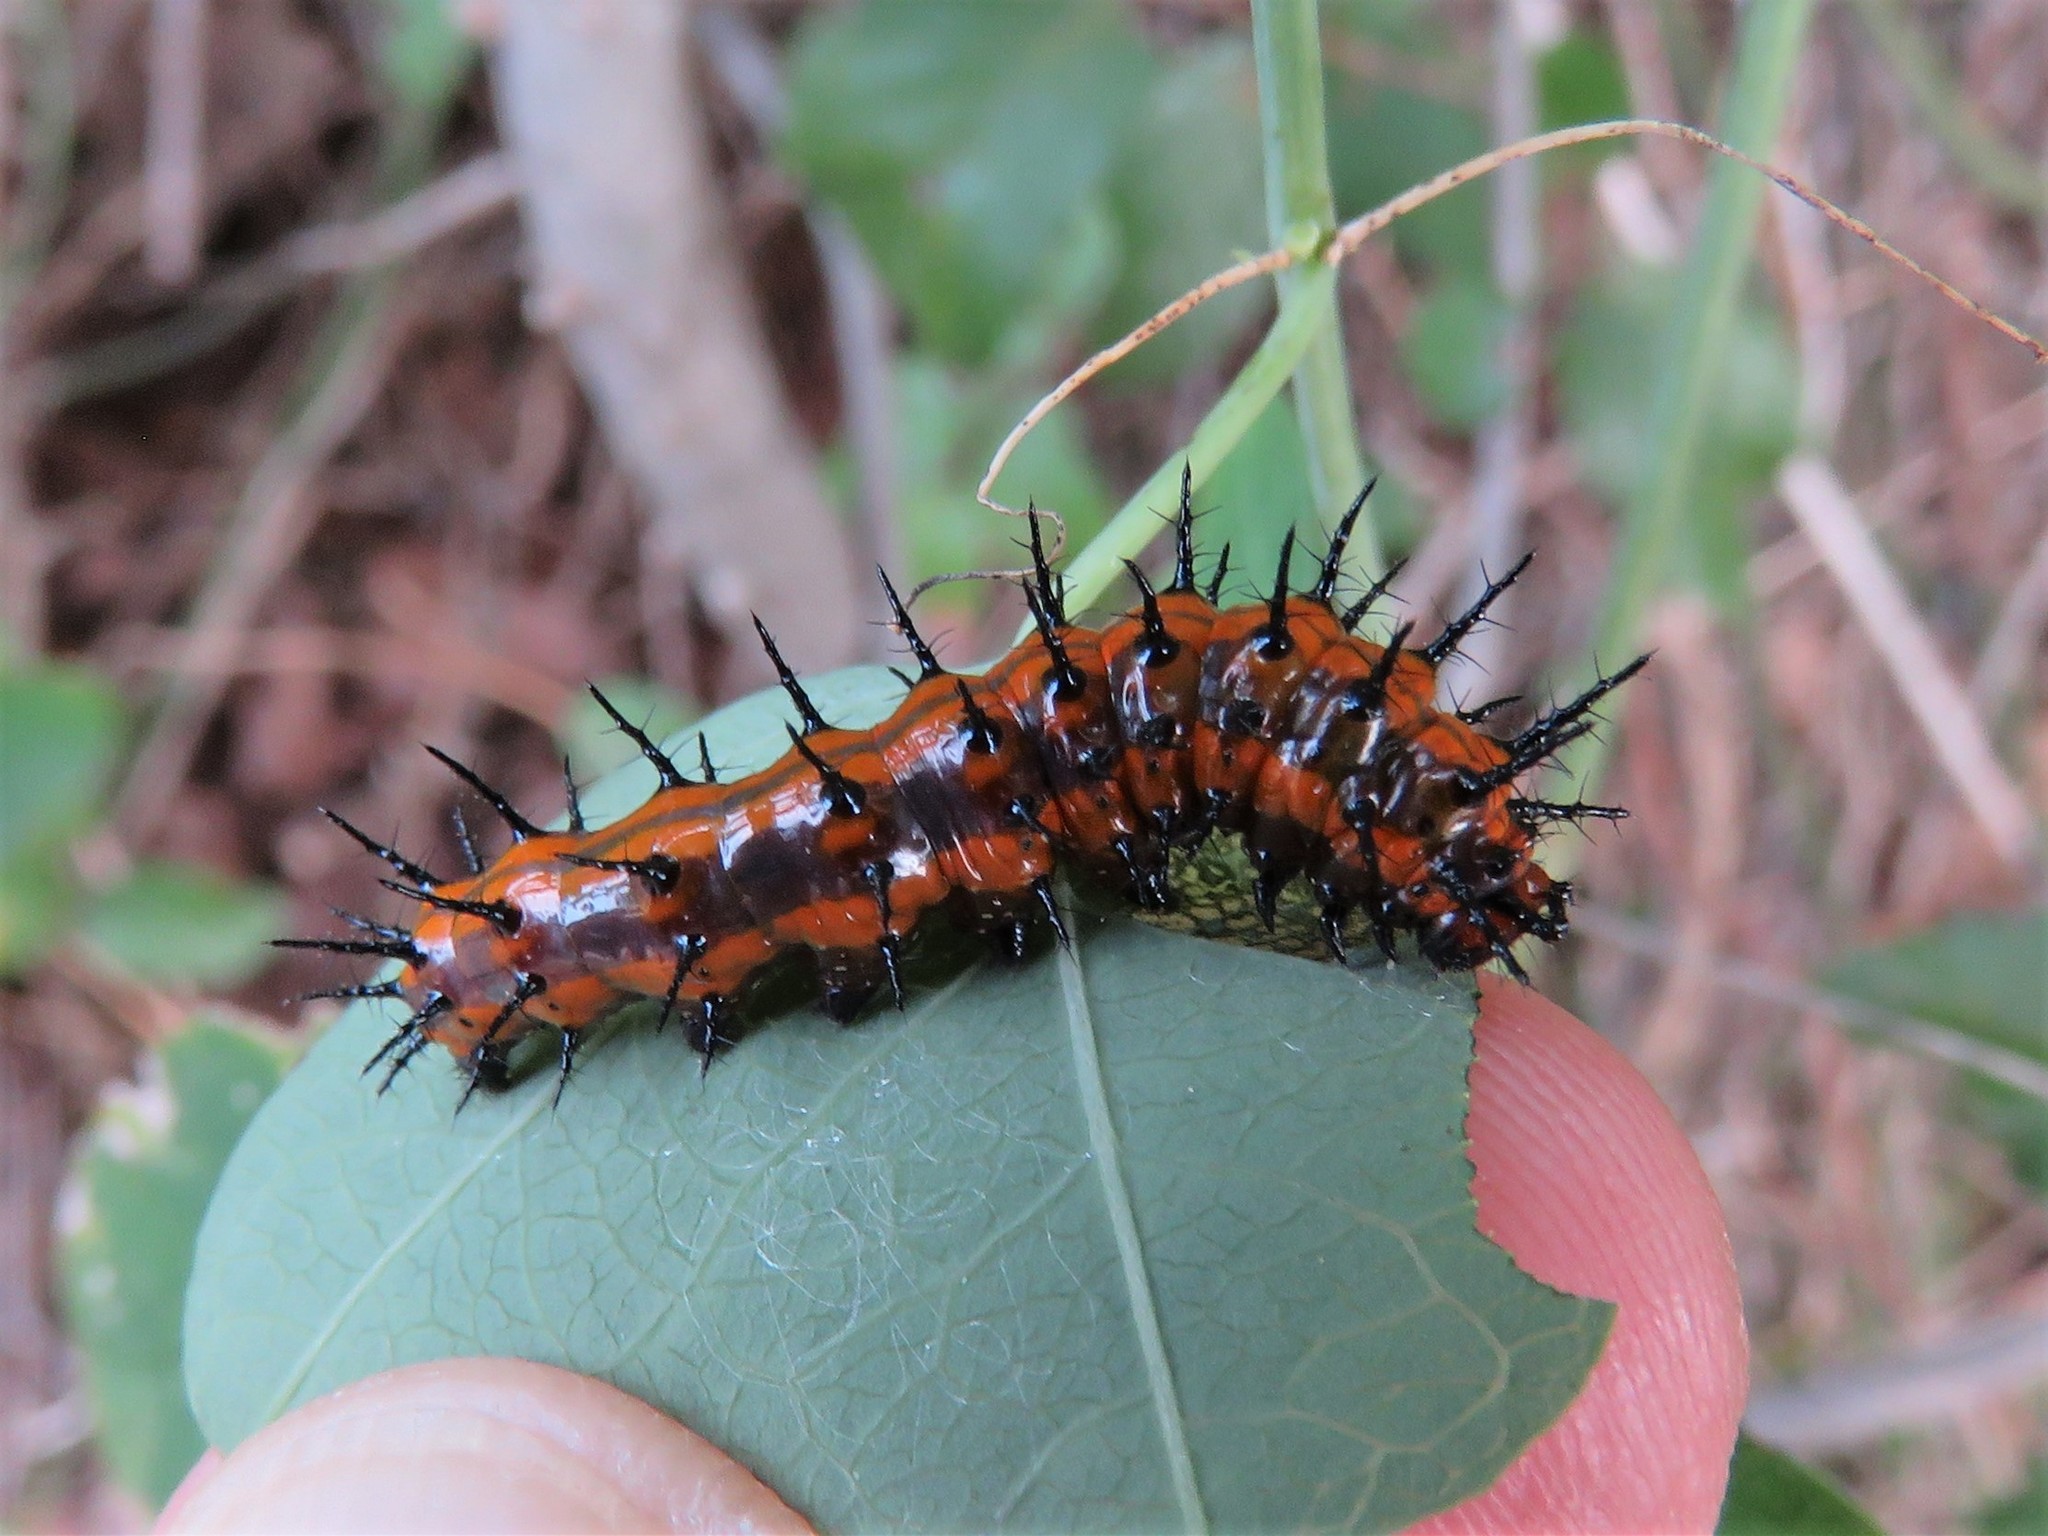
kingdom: Animalia
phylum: Arthropoda
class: Insecta
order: Lepidoptera
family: Nymphalidae
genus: Dione
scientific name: Dione vanillae
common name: Gulf fritillary
